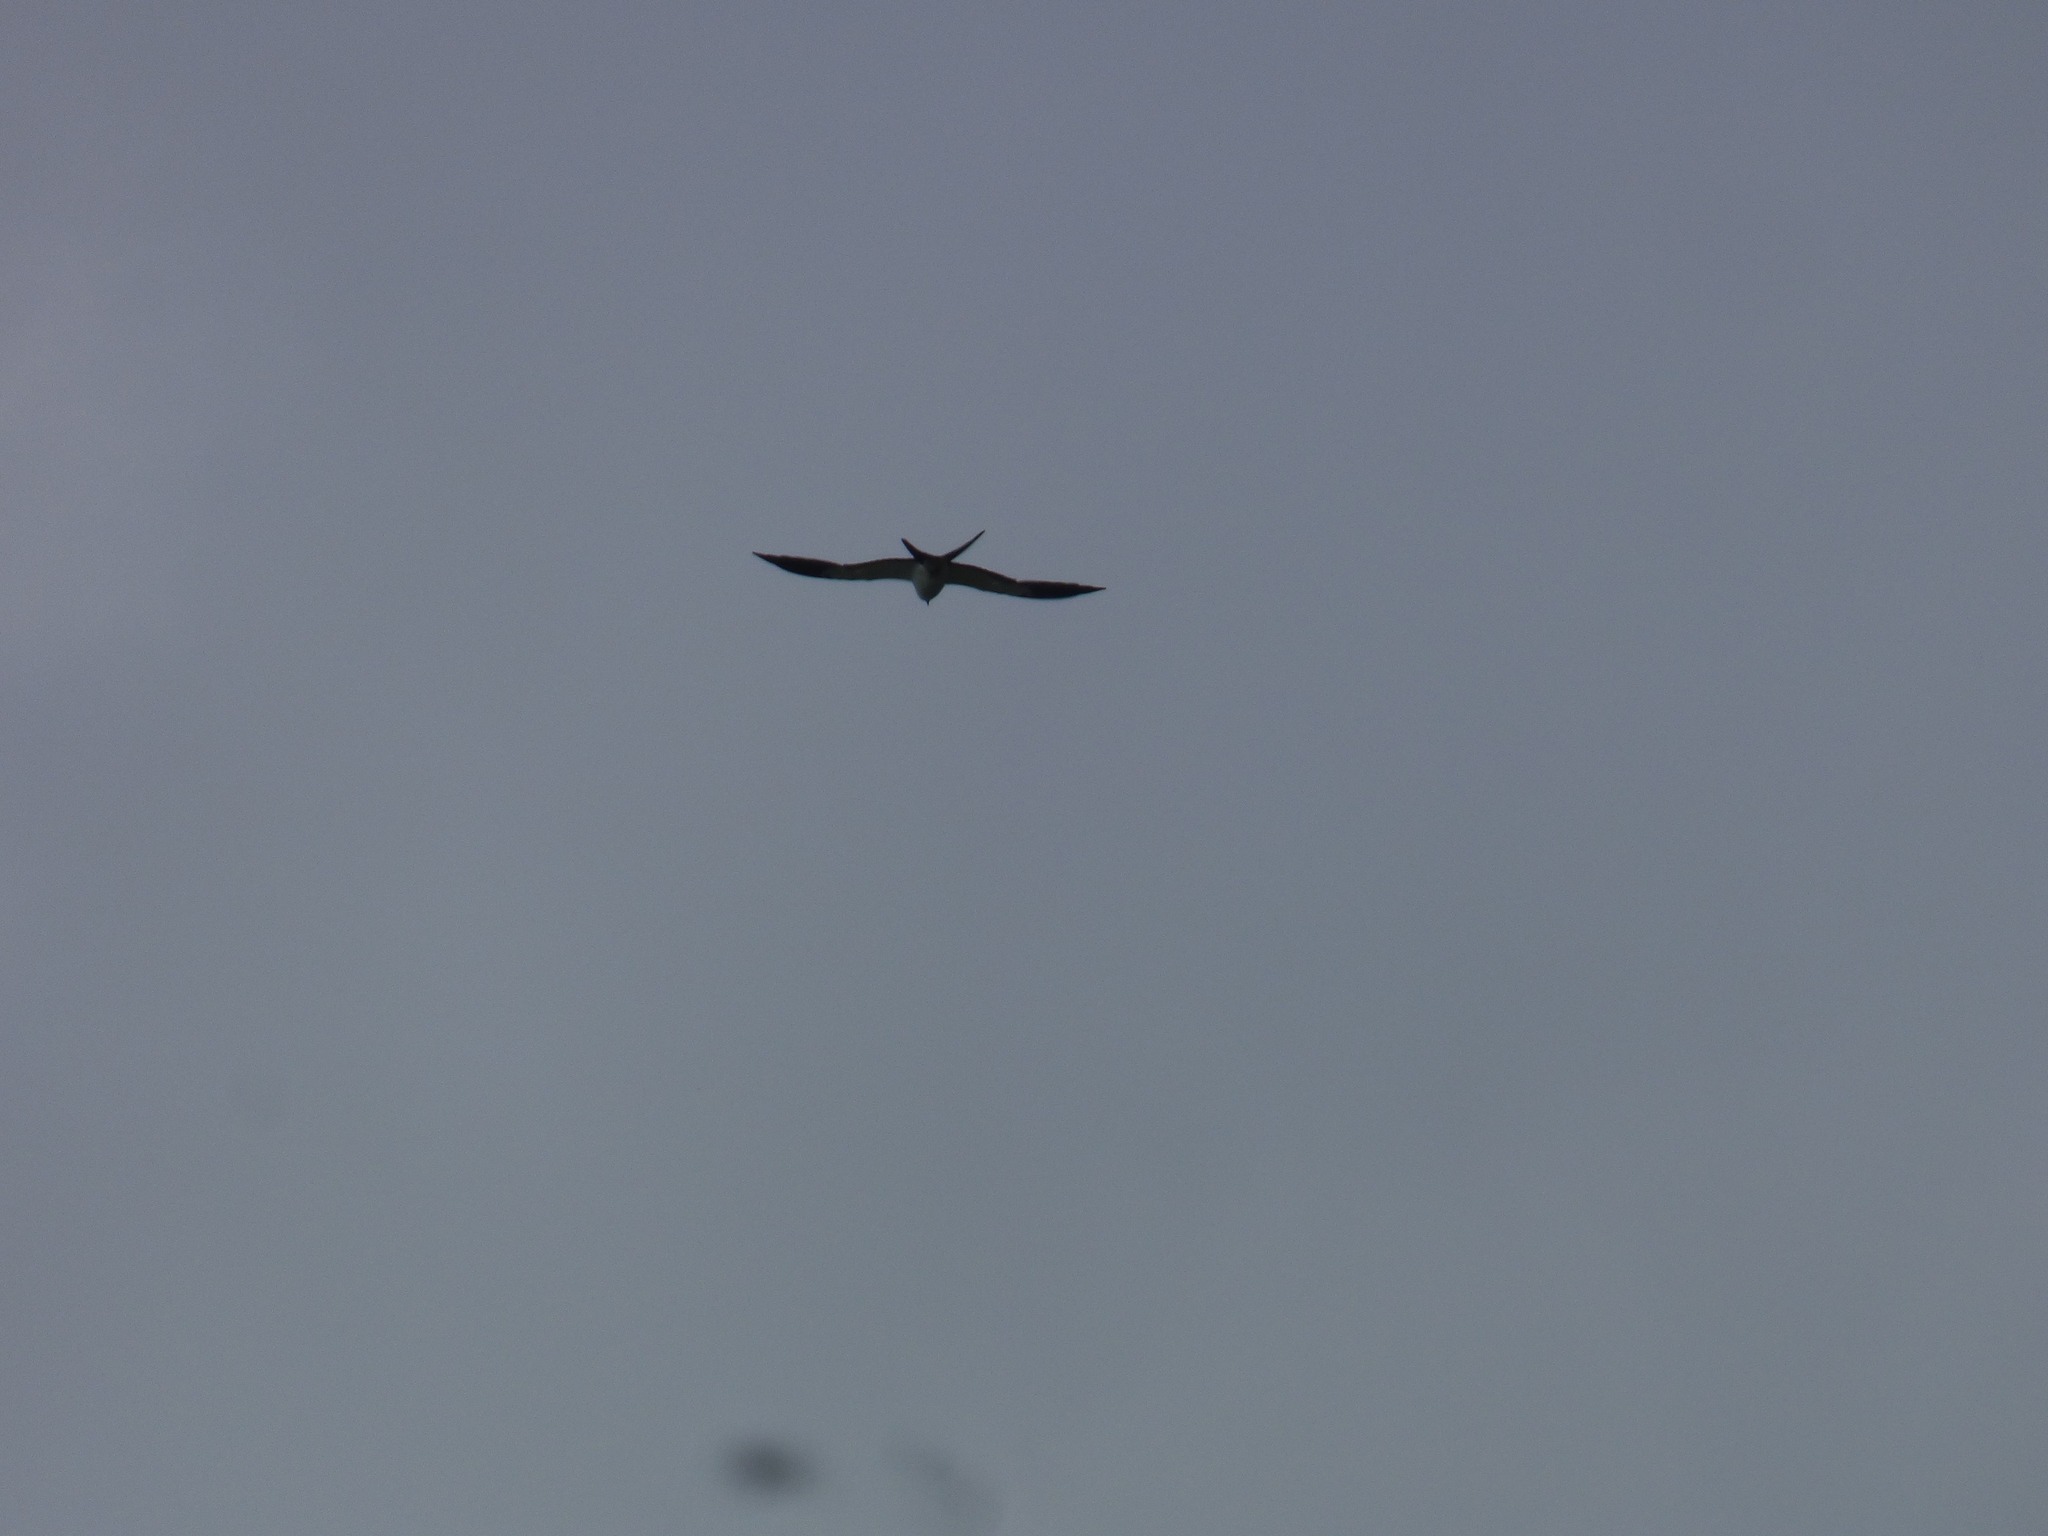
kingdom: Animalia
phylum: Chordata
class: Aves
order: Accipitriformes
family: Accipitridae
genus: Elanoides
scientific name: Elanoides forficatus
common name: Swallow-tailed kite
